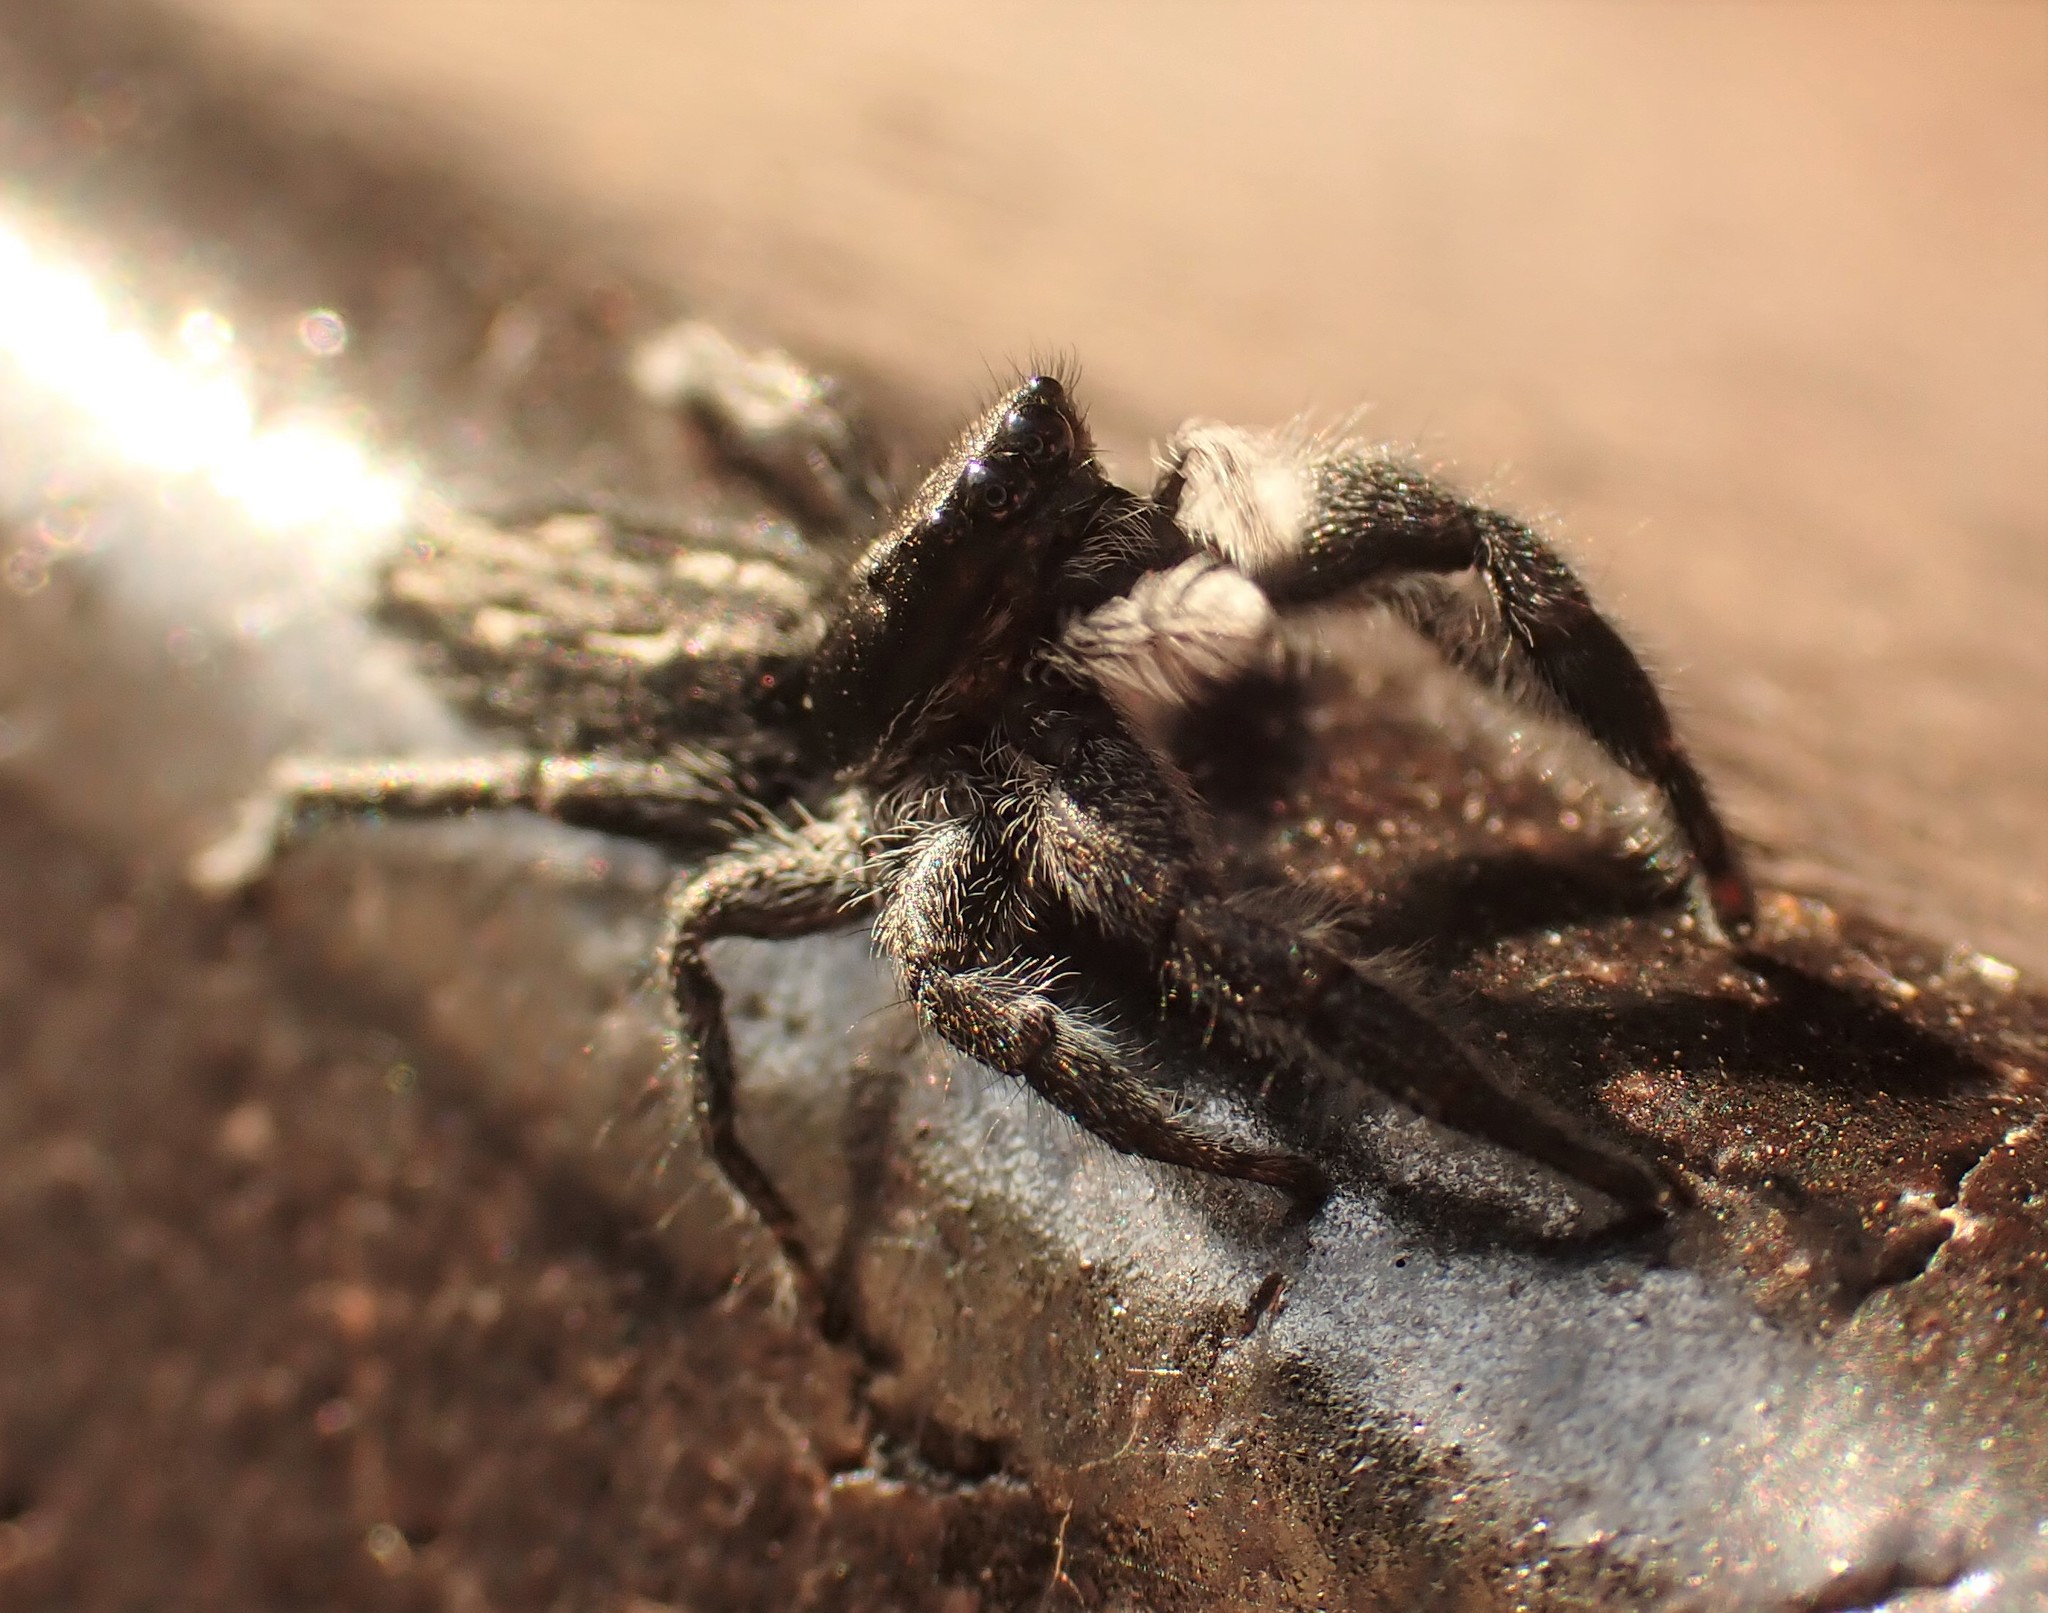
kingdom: Animalia
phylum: Arthropoda
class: Arachnida
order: Araneae
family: Salticidae
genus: Ocrisiona
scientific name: Ocrisiona leucocomis
